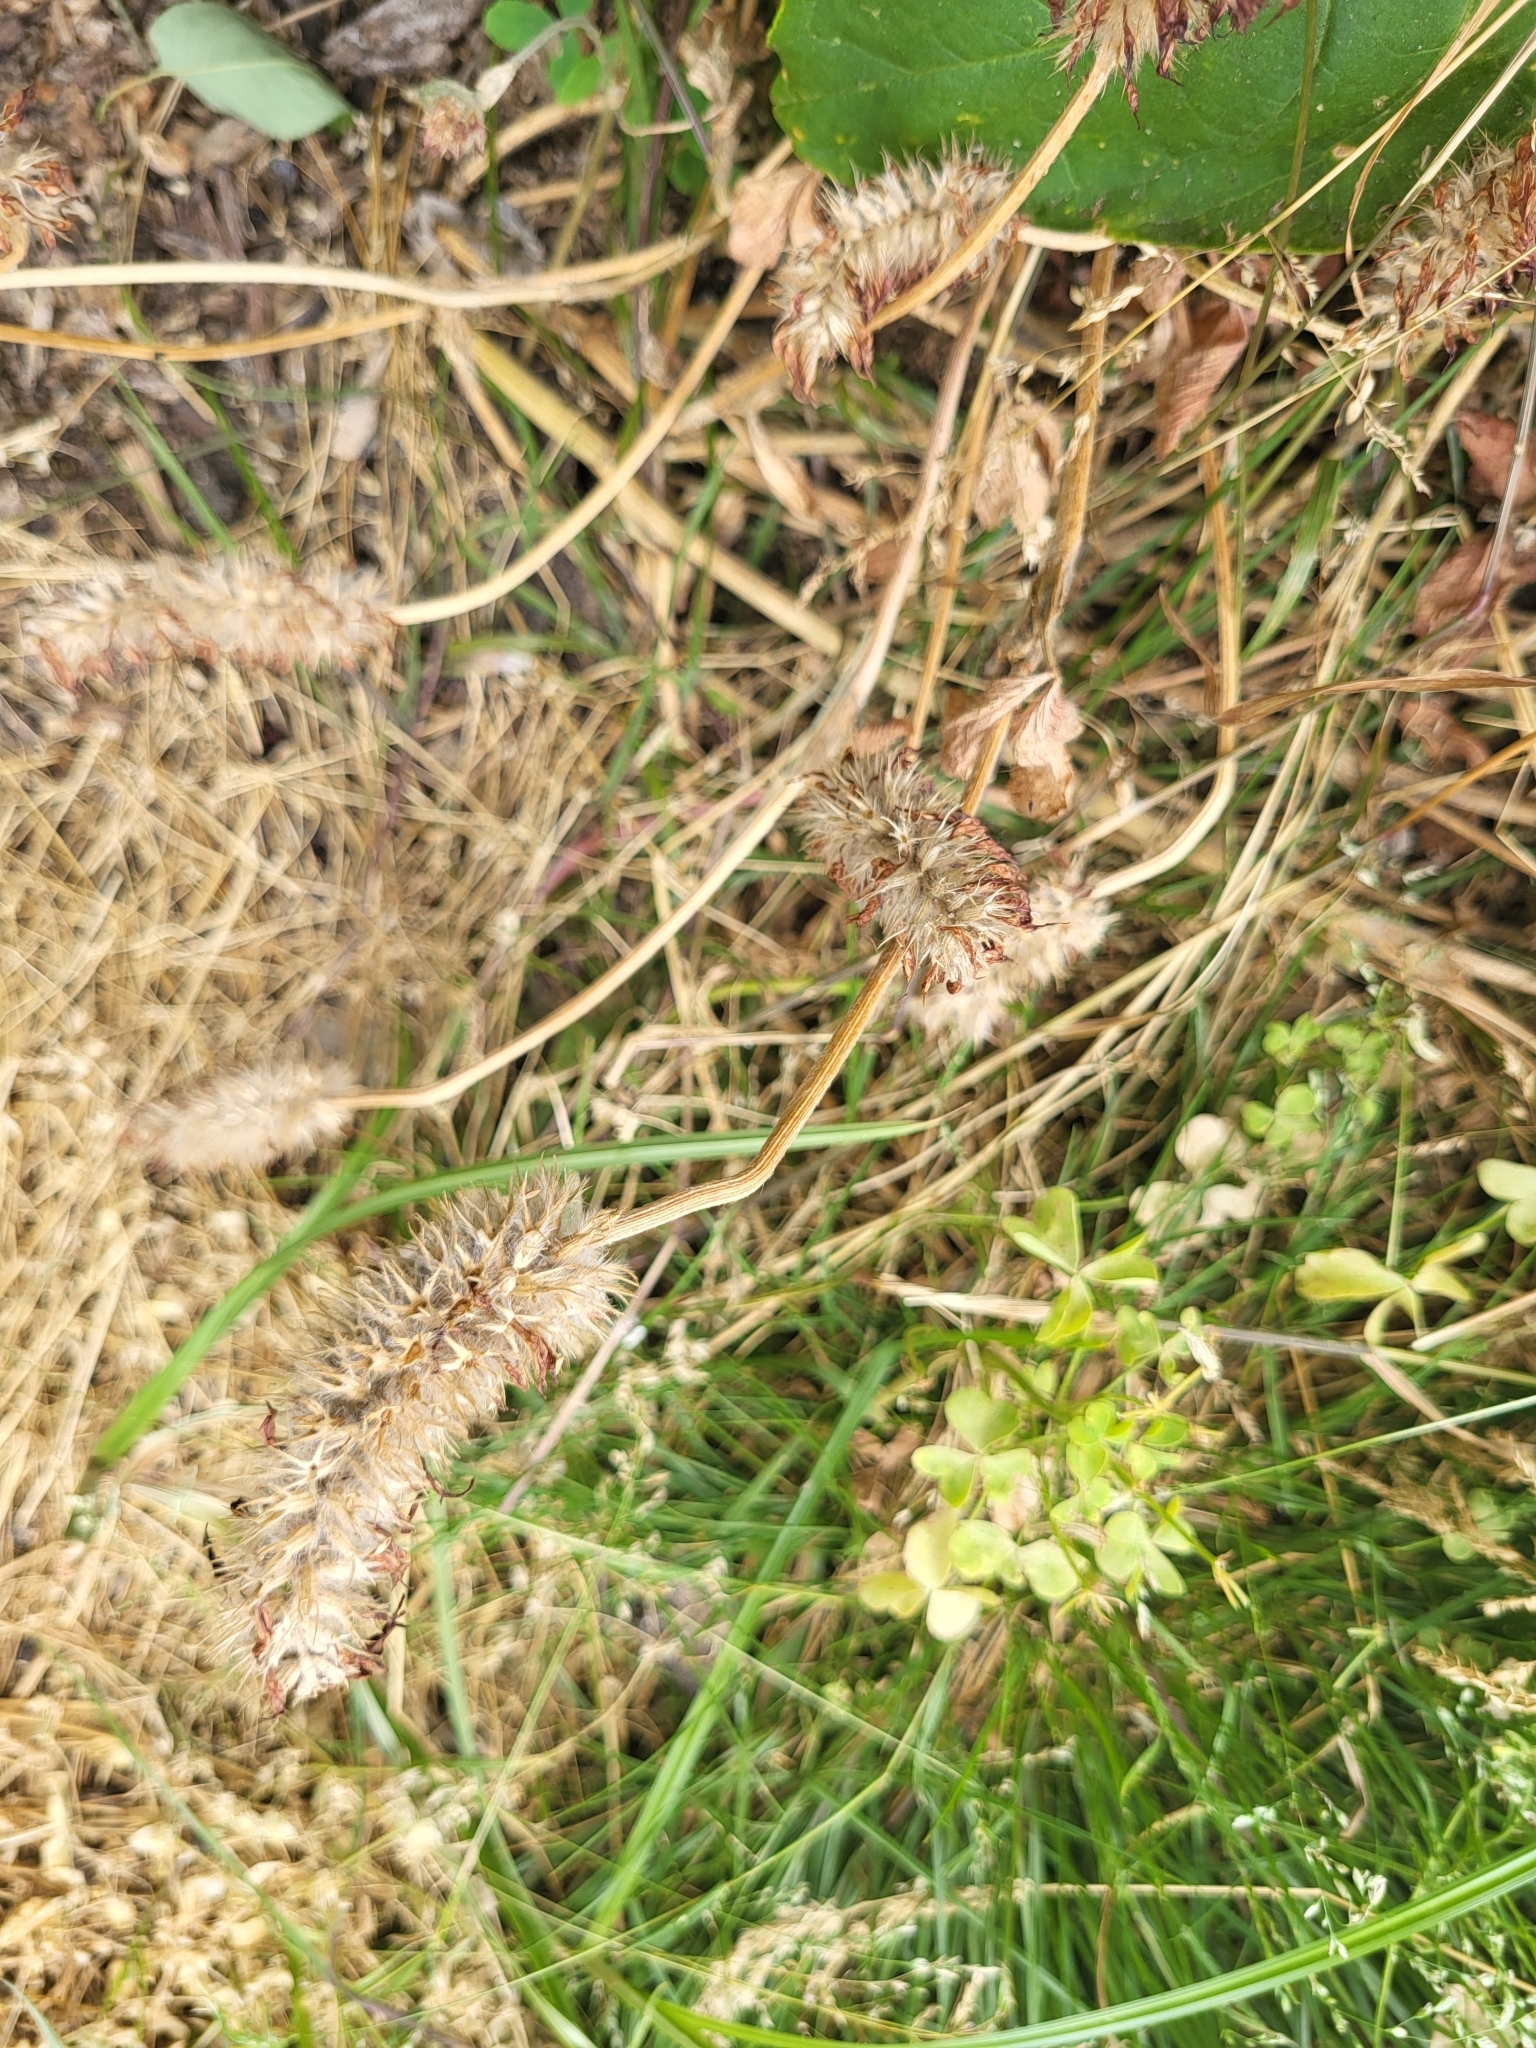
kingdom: Plantae
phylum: Tracheophyta
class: Magnoliopsida
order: Fabales
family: Fabaceae
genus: Trifolium
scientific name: Trifolium incarnatum
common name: Crimson clover
